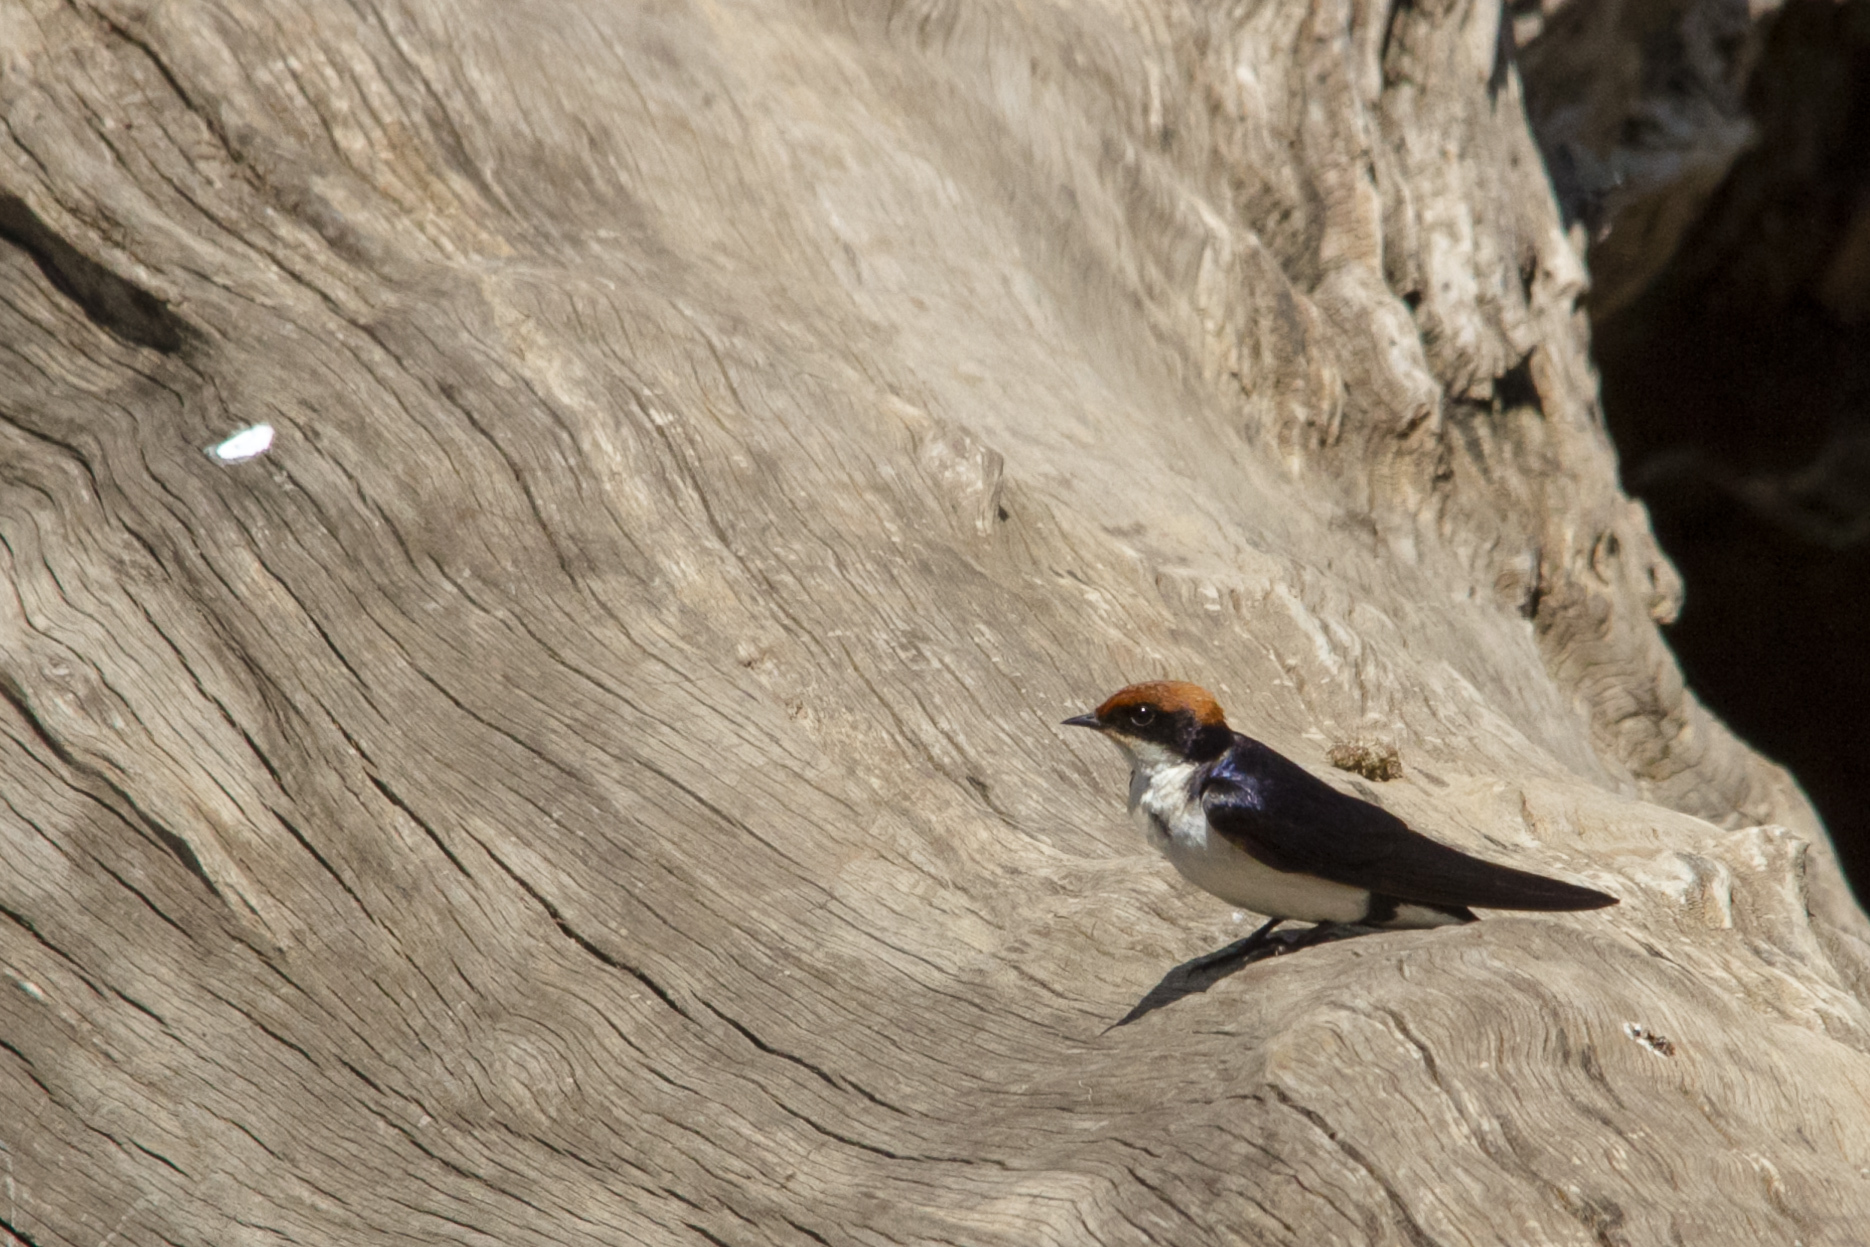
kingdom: Animalia
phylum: Chordata
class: Aves
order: Passeriformes
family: Hirundinidae
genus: Hirundo
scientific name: Hirundo smithii
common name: Wire-tailed swallow
